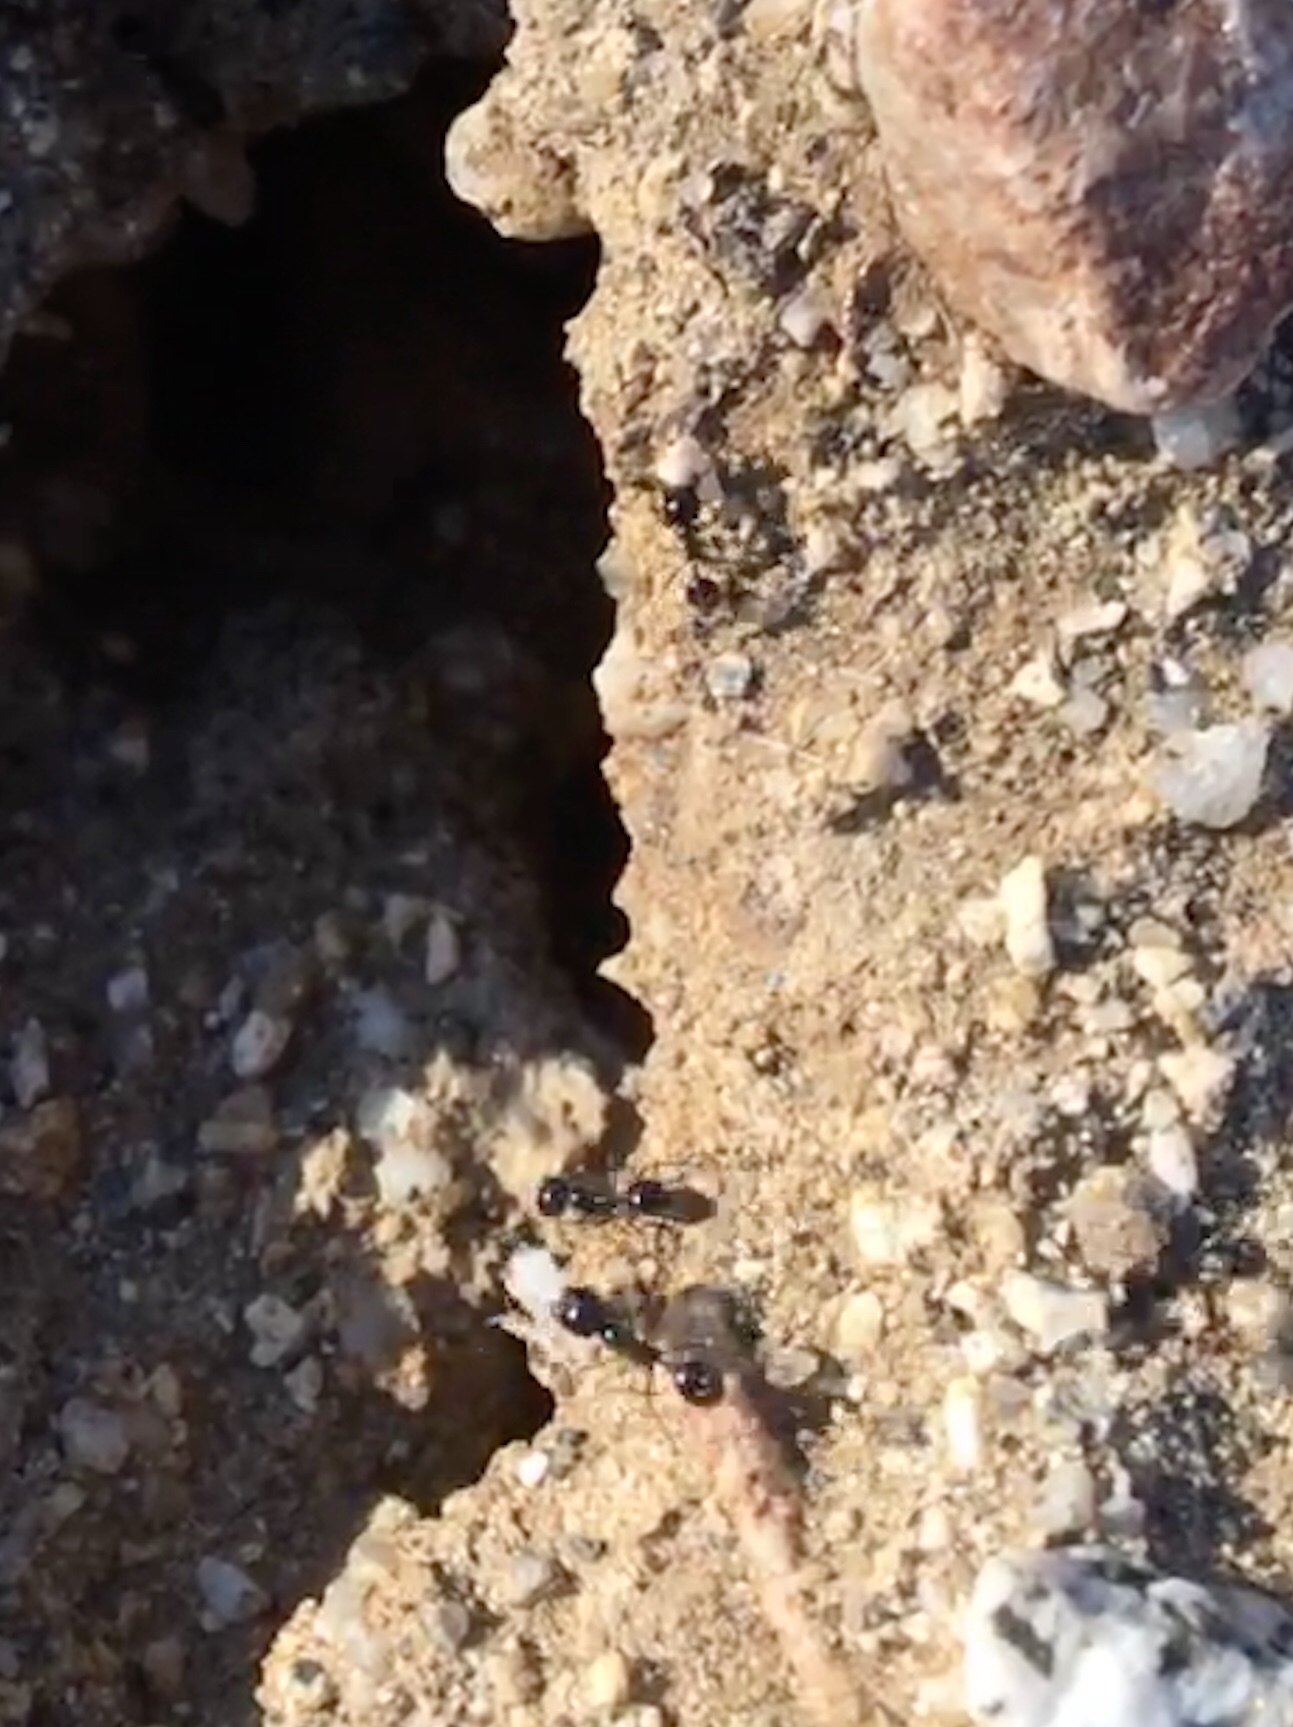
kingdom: Animalia
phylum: Arthropoda
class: Insecta
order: Hymenoptera
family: Formicidae
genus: Messor
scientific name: Messor pergandei
